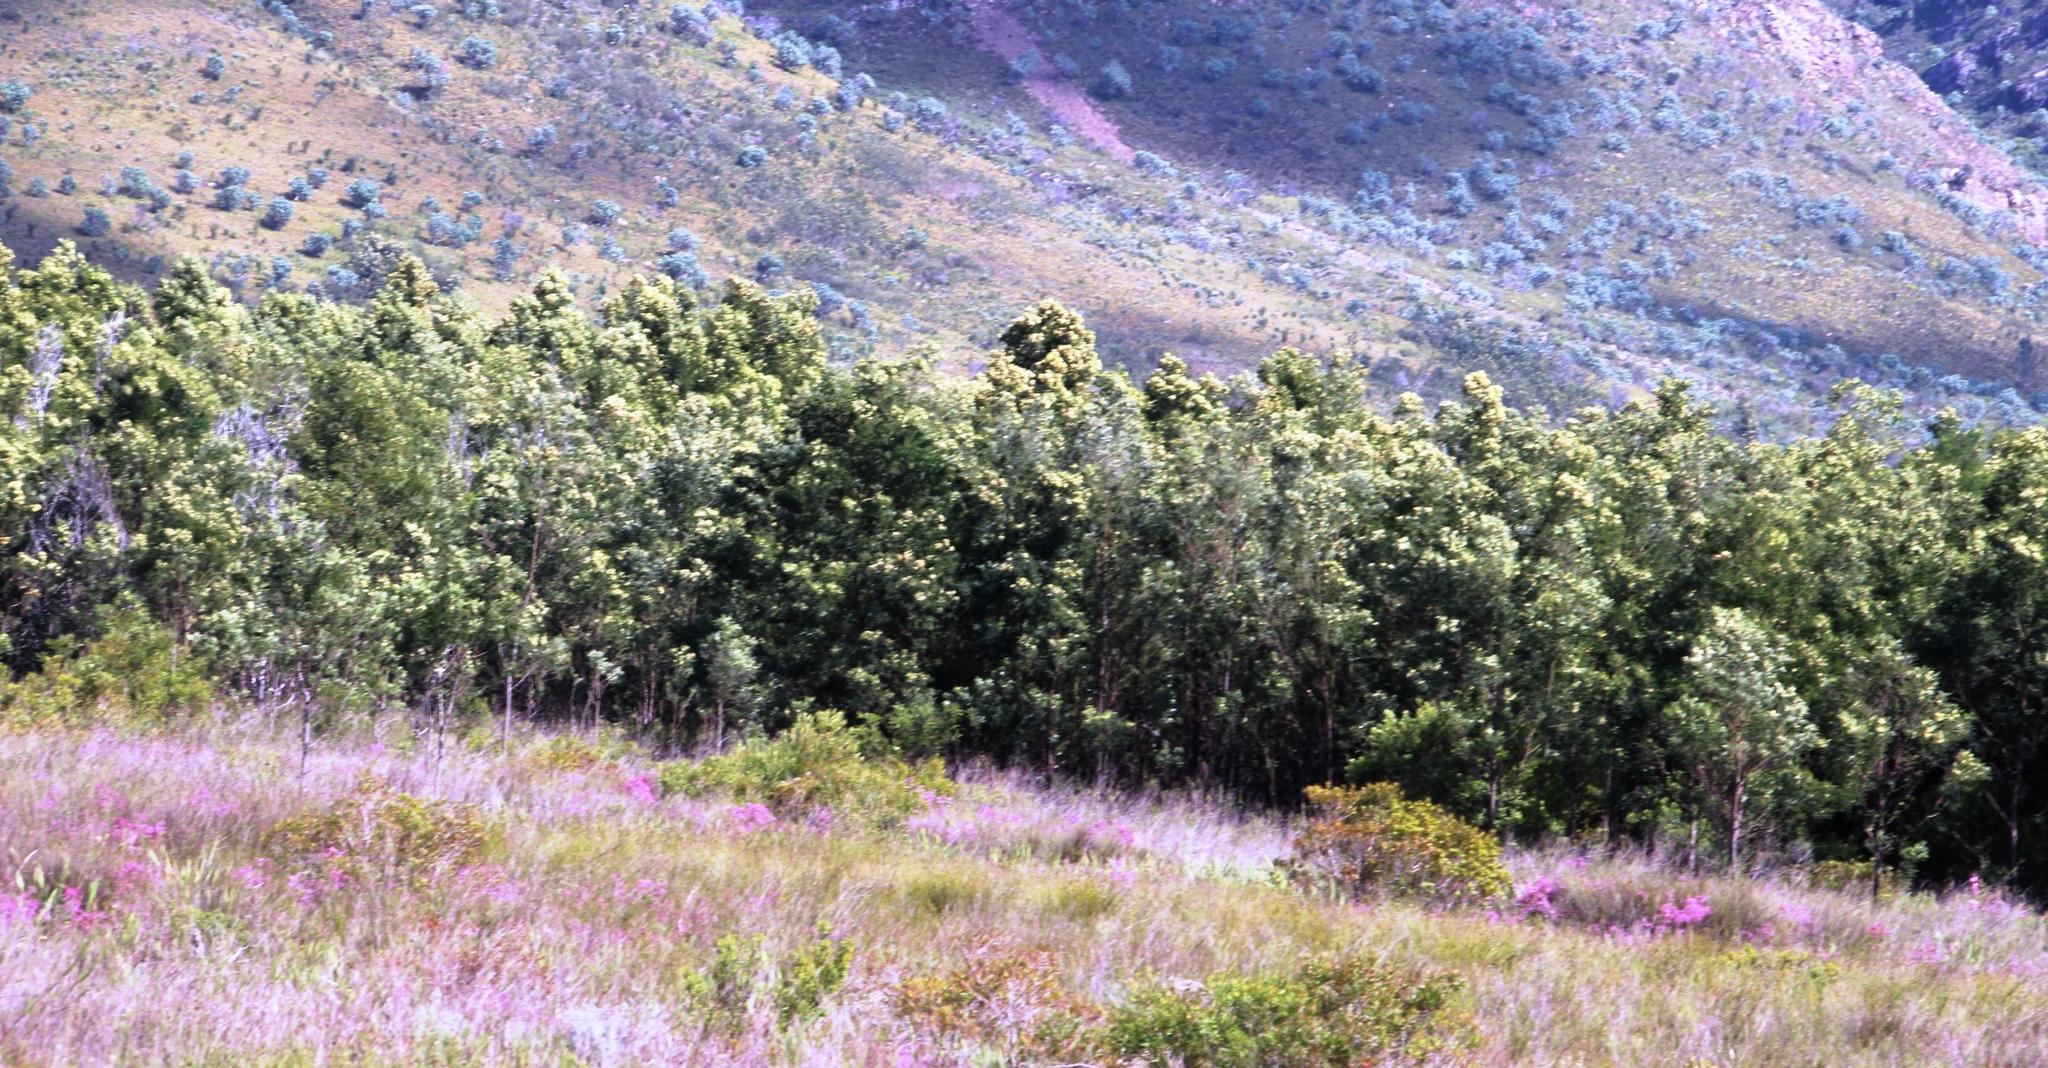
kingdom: Plantae
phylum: Tracheophyta
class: Magnoliopsida
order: Fabales
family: Fabaceae
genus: Acacia
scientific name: Acacia mearnsii
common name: Black wattle
